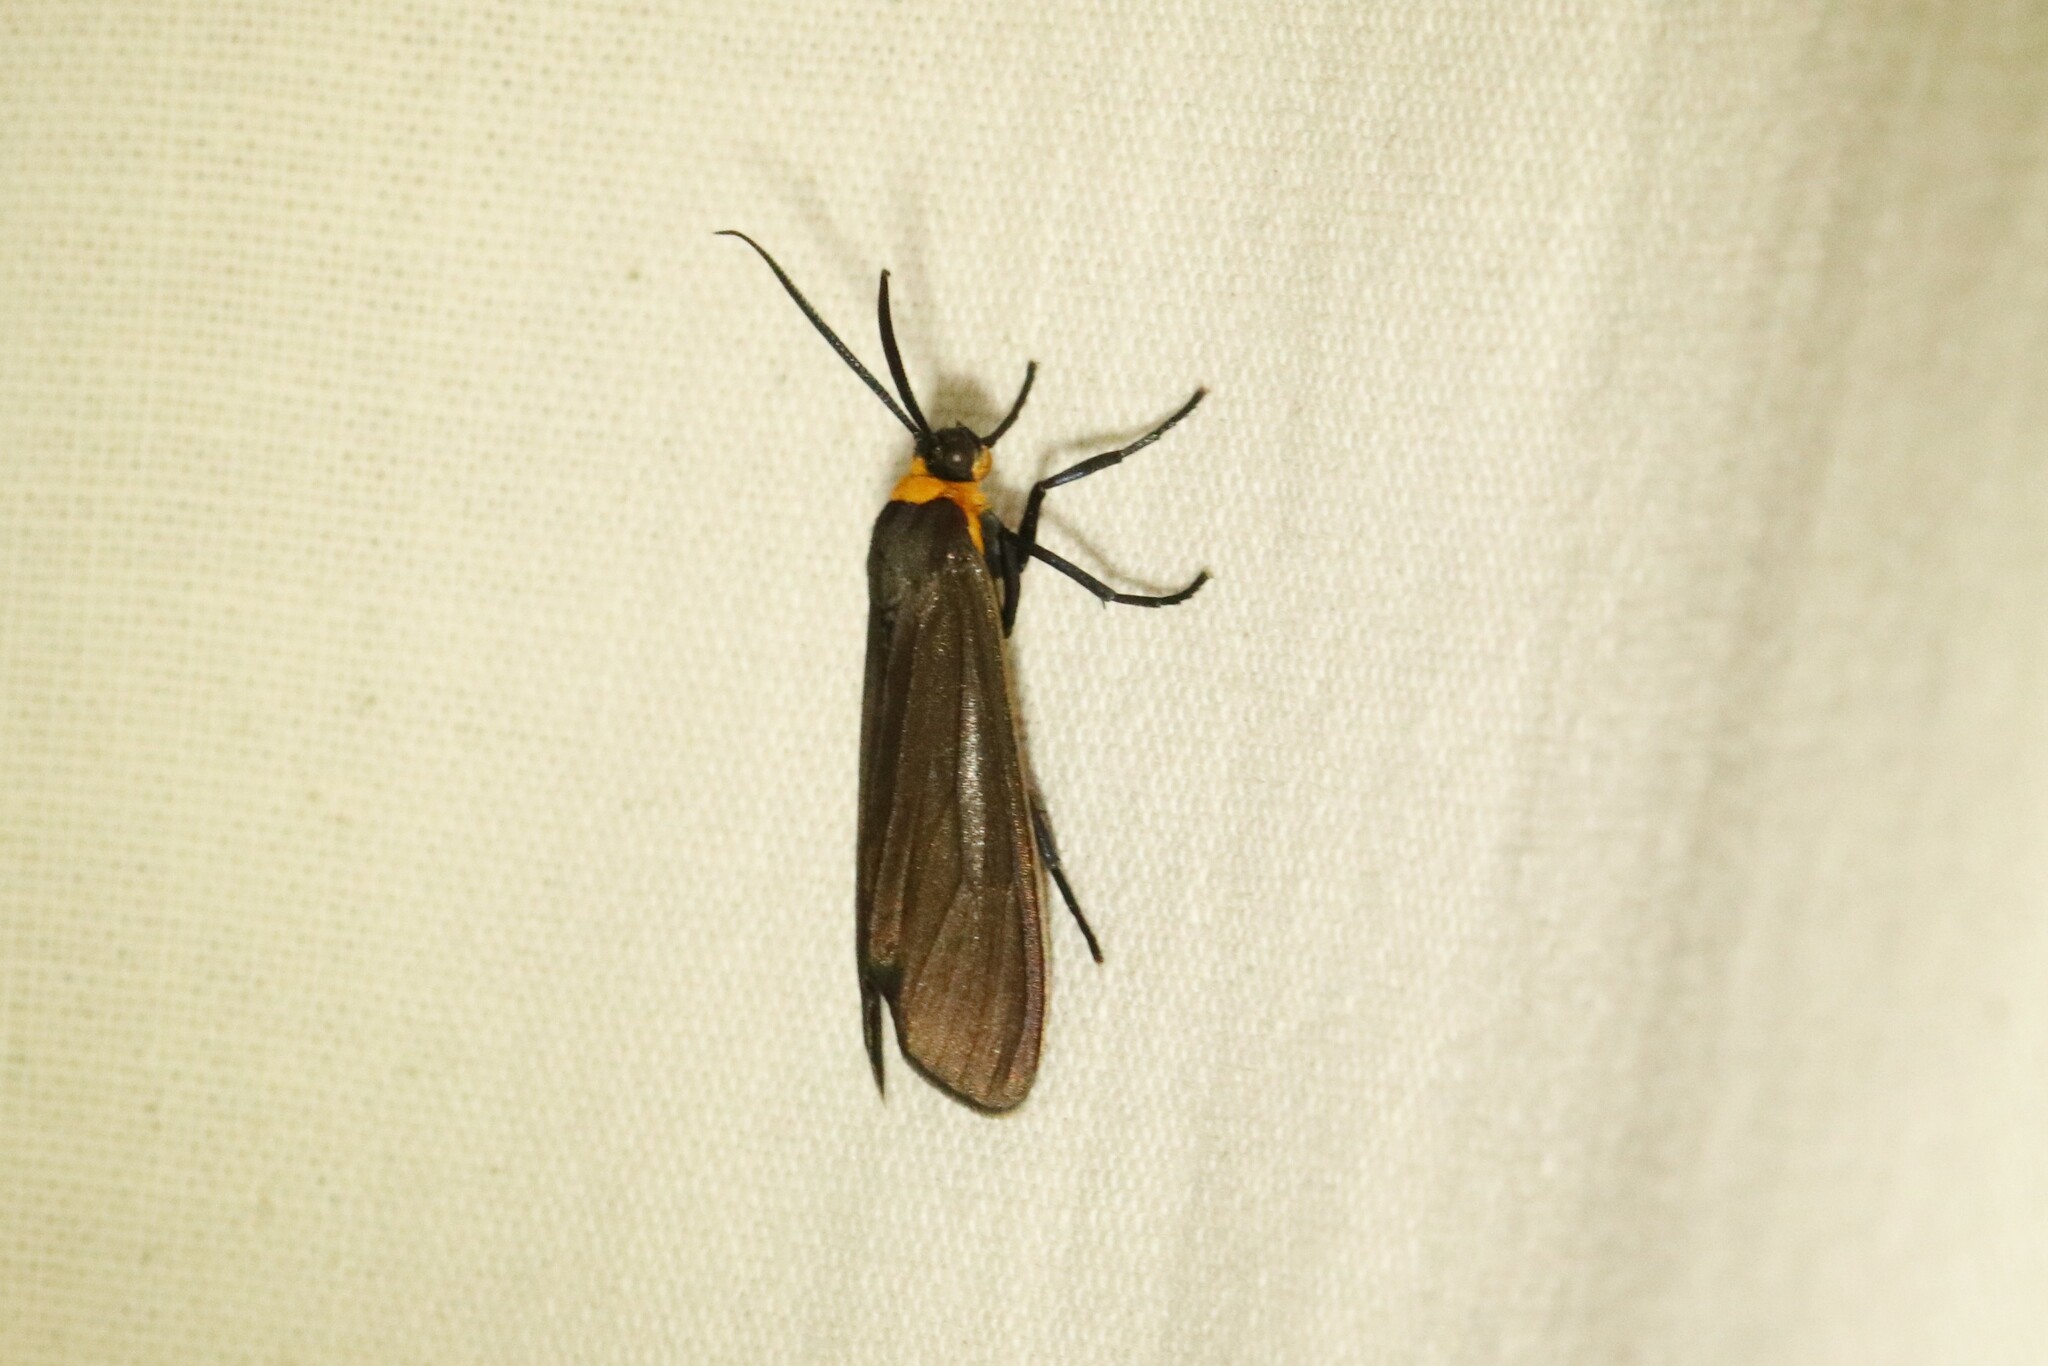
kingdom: Animalia
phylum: Arthropoda
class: Insecta
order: Lepidoptera
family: Erebidae
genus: Cisseps
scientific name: Cisseps fulvicollis
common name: Yellow-collared scape moth
